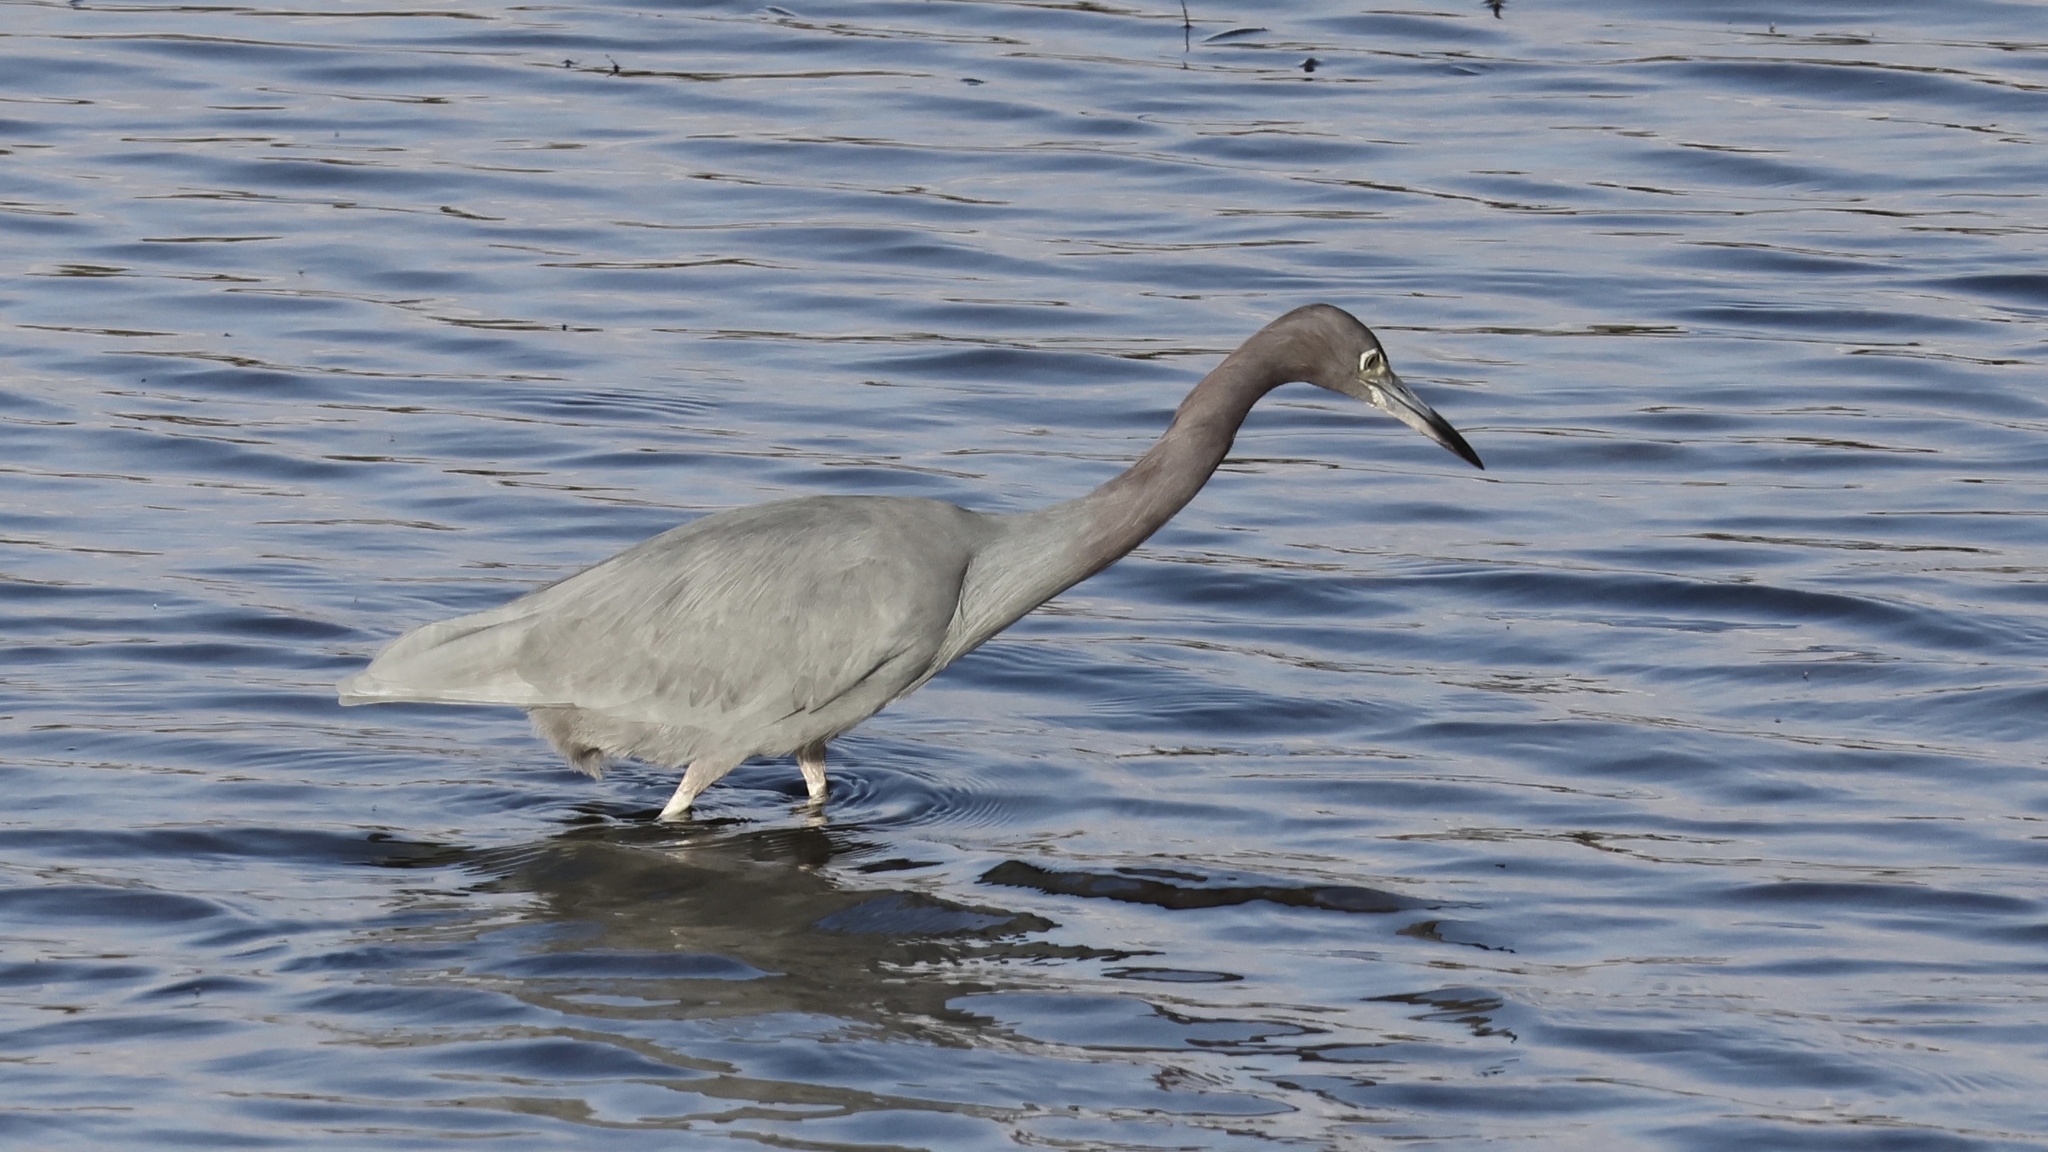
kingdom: Animalia
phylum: Chordata
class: Aves
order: Pelecaniformes
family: Ardeidae
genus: Egretta
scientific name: Egretta caerulea
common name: Little blue heron
